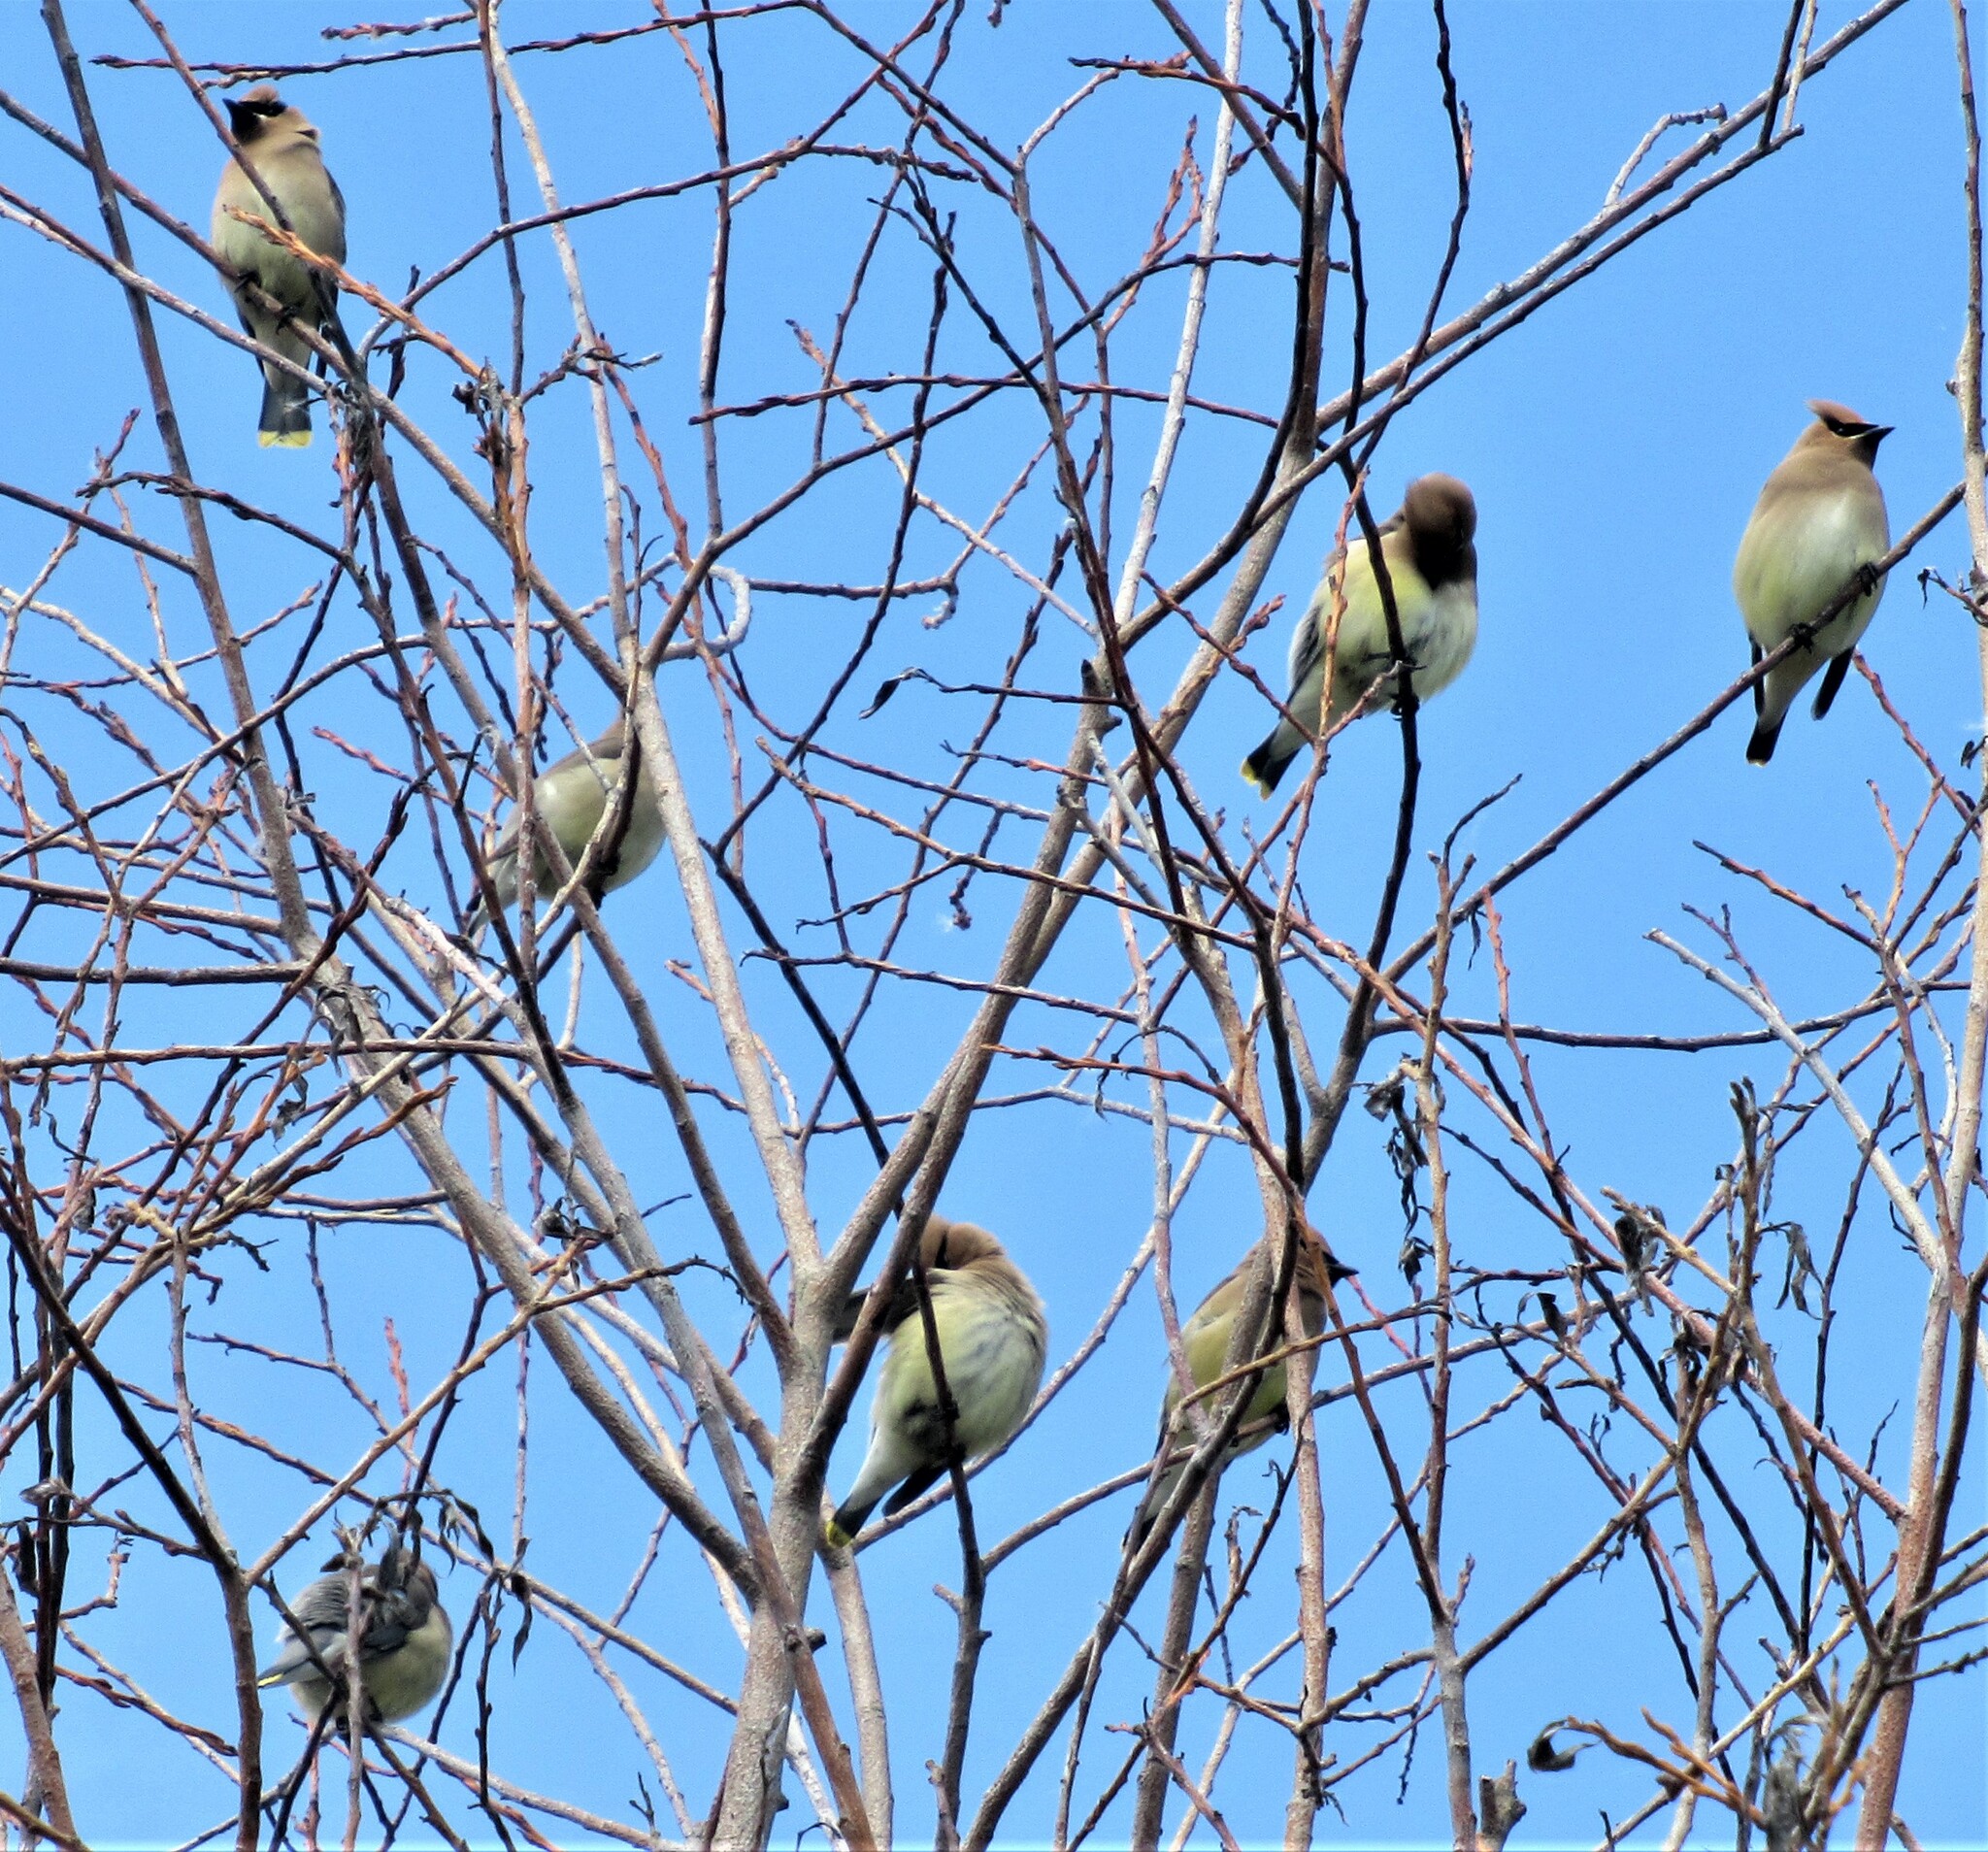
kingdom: Animalia
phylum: Chordata
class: Aves
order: Passeriformes
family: Bombycillidae
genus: Bombycilla
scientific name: Bombycilla cedrorum
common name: Cedar waxwing
